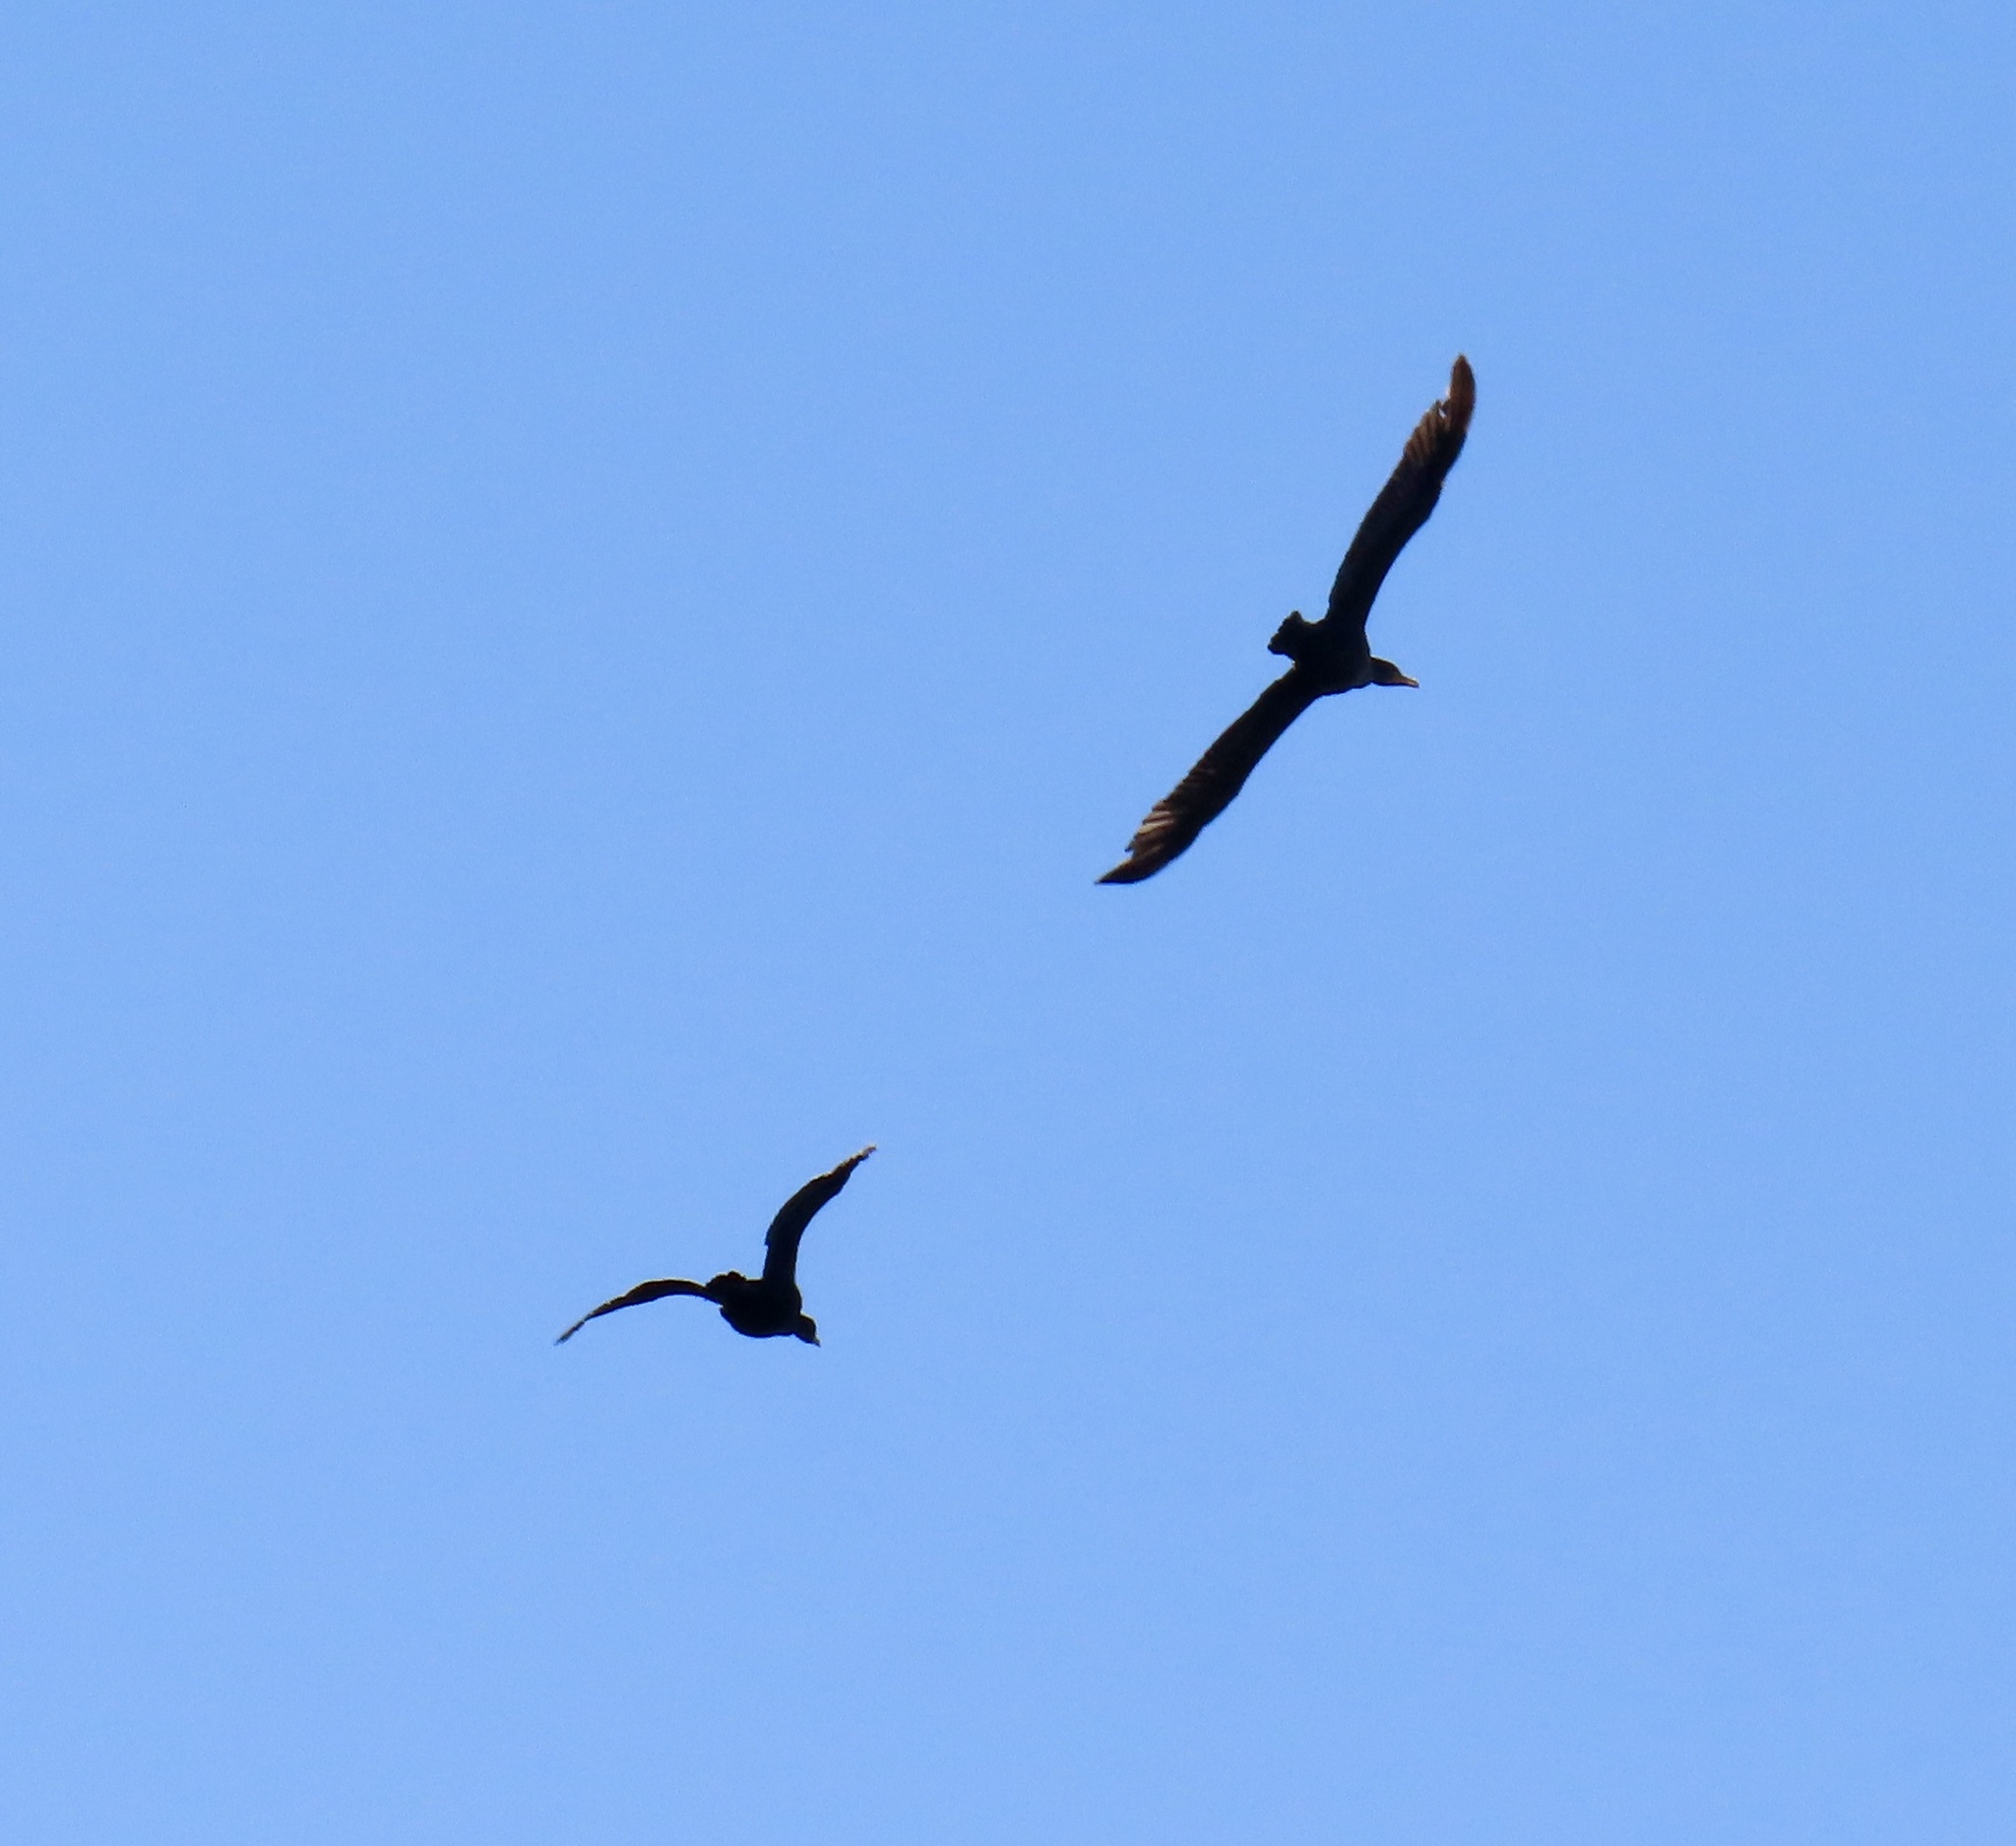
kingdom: Animalia
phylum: Chordata
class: Aves
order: Suliformes
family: Phalacrocoracidae
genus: Phalacrocorax
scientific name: Phalacrocorax auritus
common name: Double-crested cormorant
